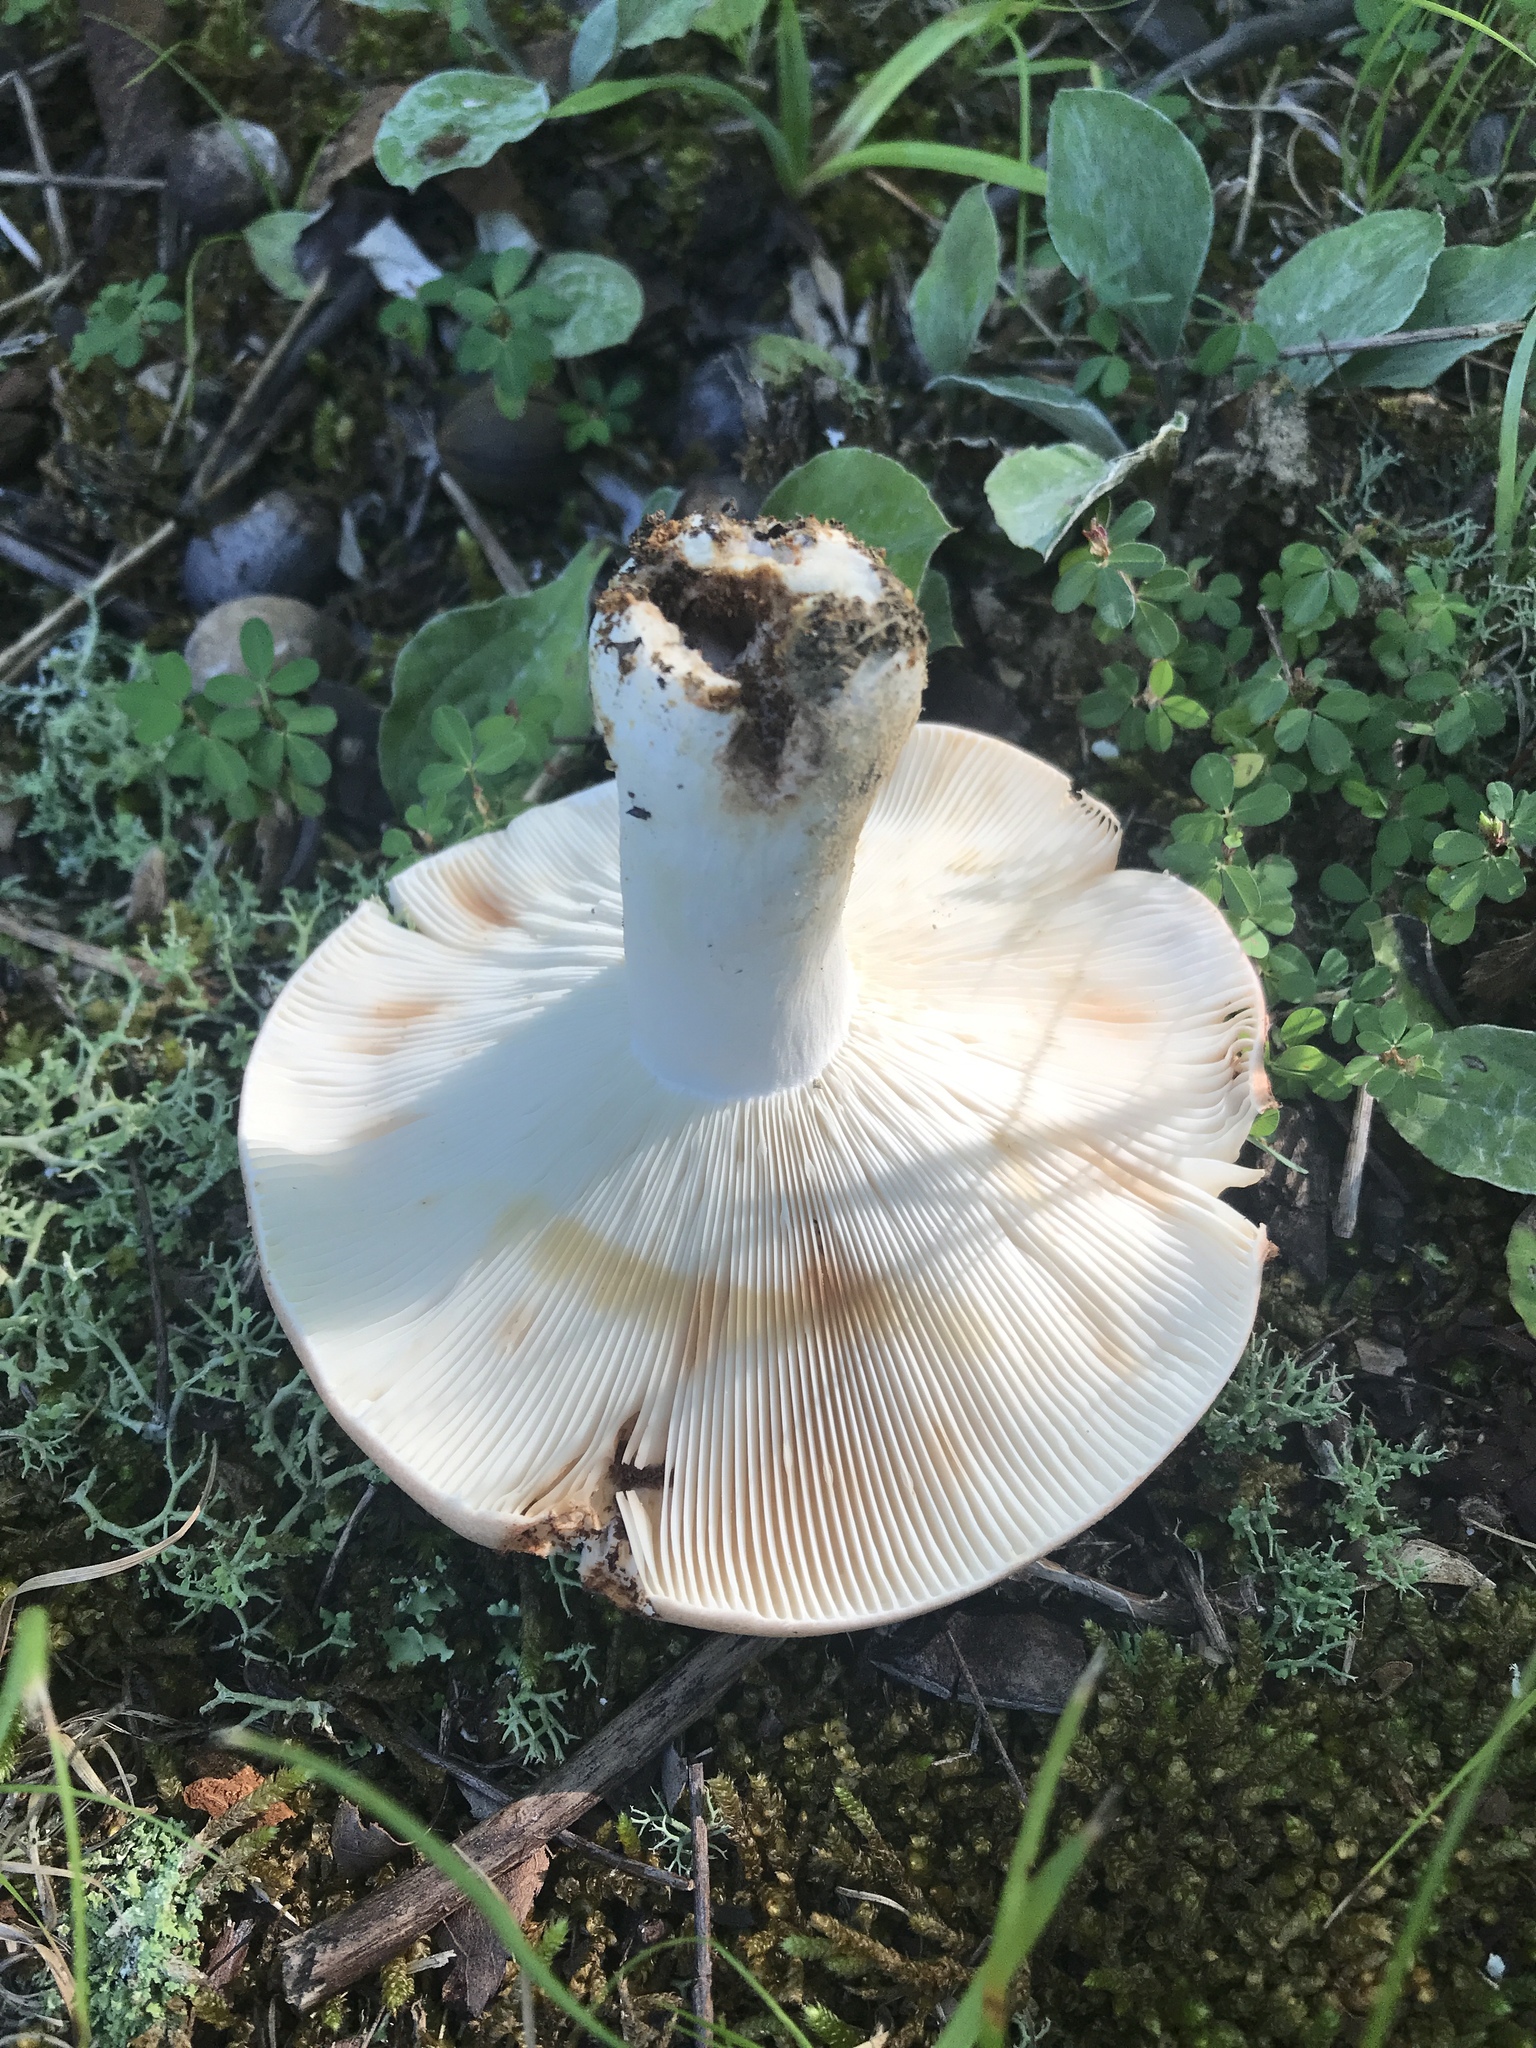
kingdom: Fungi
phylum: Basidiomycota
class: Agaricomycetes
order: Russulales
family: Russulaceae
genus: Russula
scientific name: Russula compacta
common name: Fishbiscuit russula
